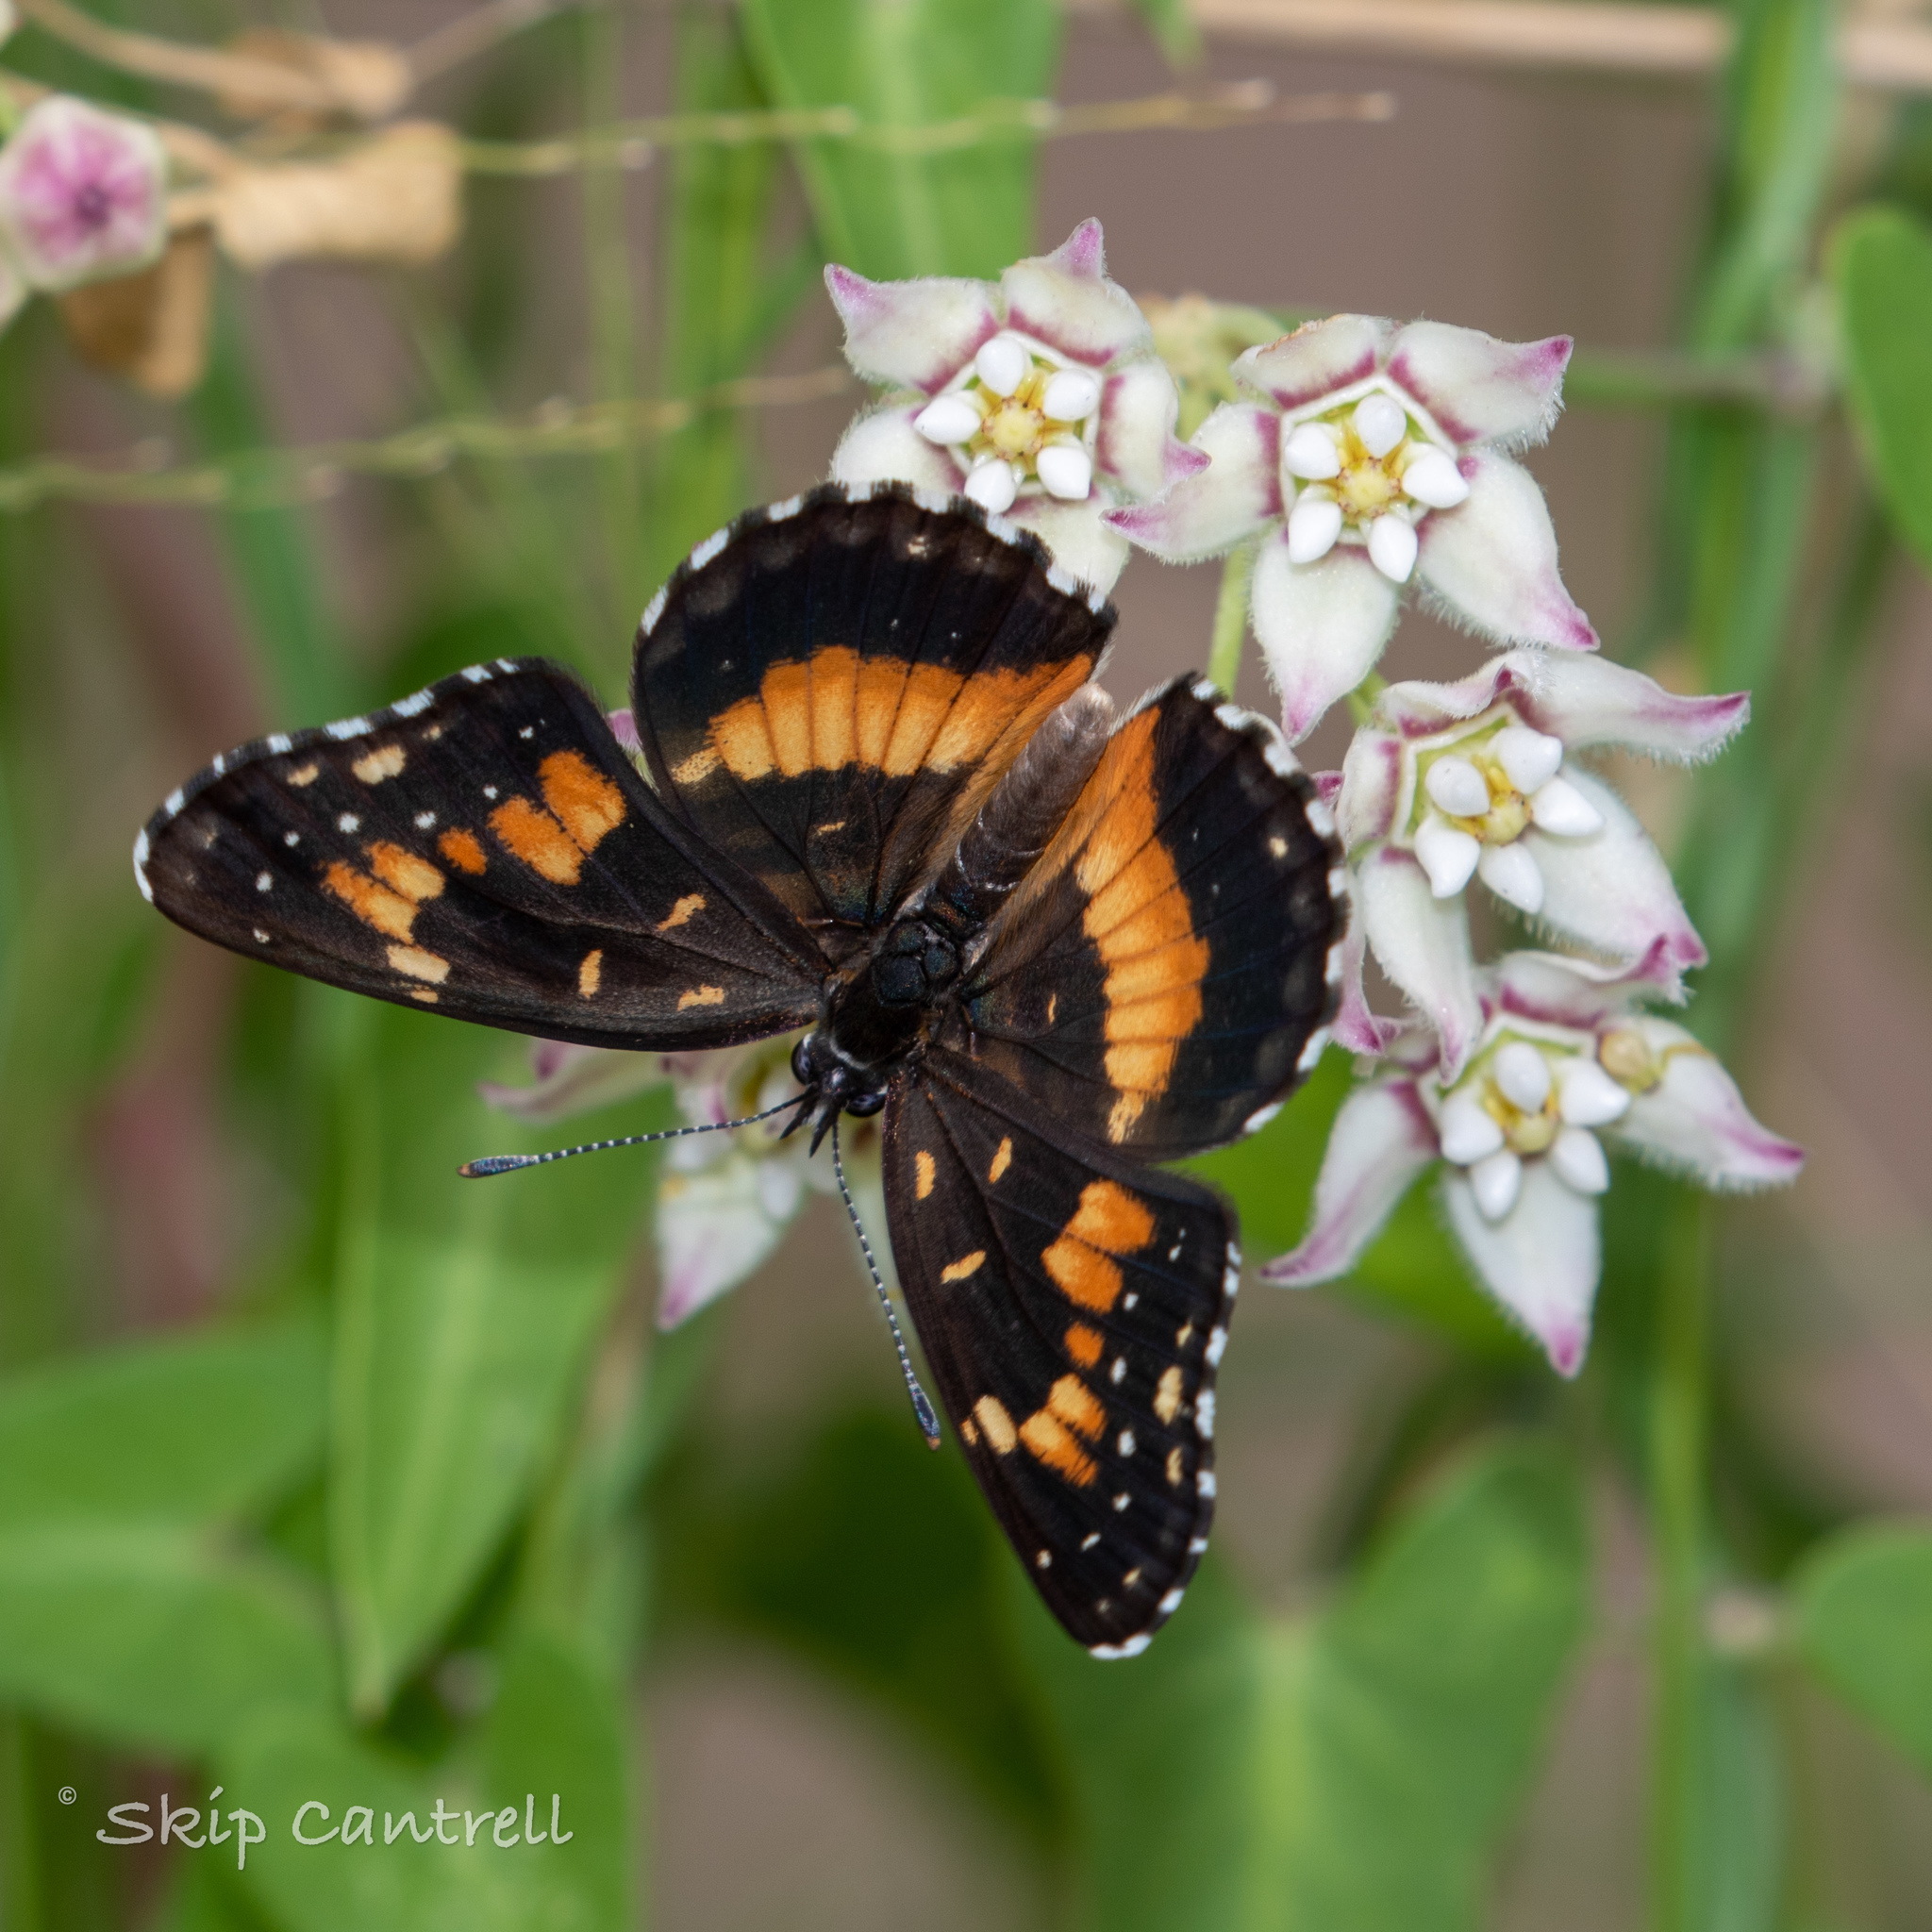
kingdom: Animalia
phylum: Arthropoda
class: Insecta
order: Lepidoptera
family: Nymphalidae
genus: Chlosyne
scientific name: Chlosyne lacinia
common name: Bordered patch
